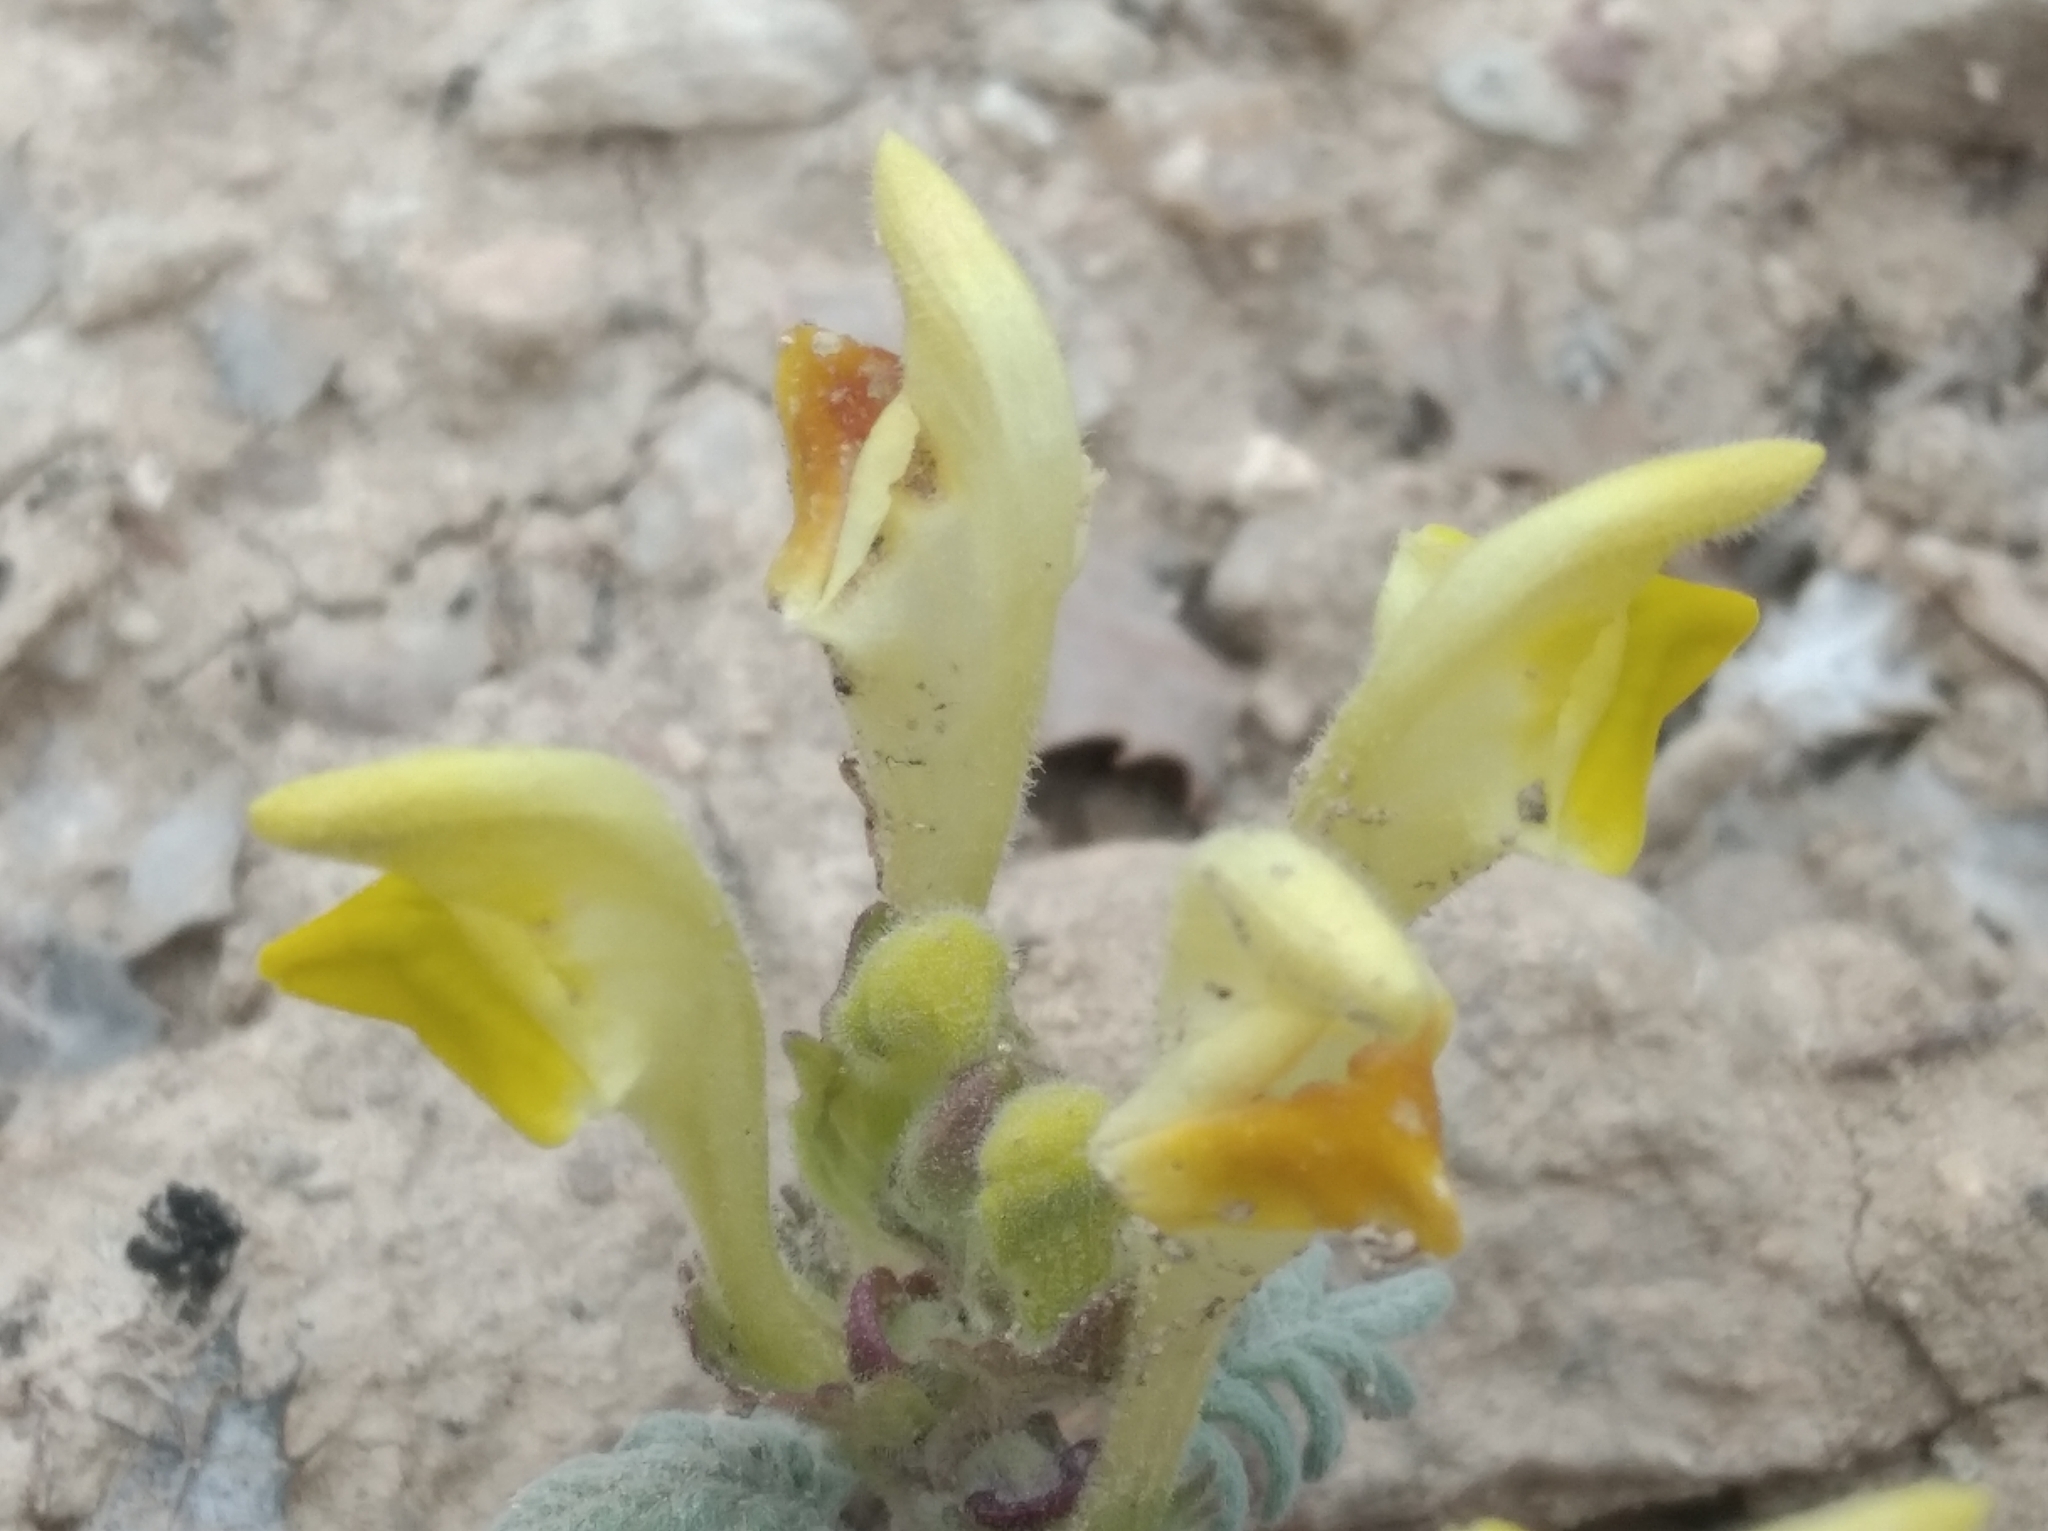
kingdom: Plantae
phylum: Tracheophyta
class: Magnoliopsida
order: Lamiales
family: Lamiaceae
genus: Scutellaria
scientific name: Scutellaria orientalis
